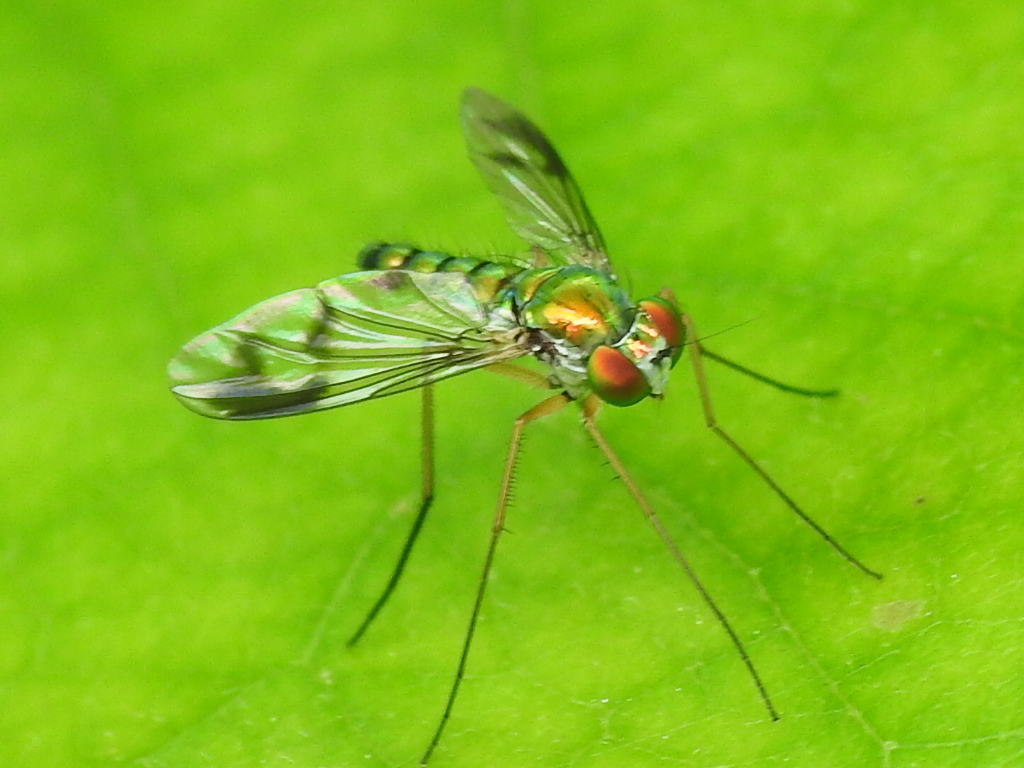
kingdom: Animalia
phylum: Arthropoda
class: Insecta
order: Diptera
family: Dolichopodidae
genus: Condylostylus
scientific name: Condylostylus sipho
